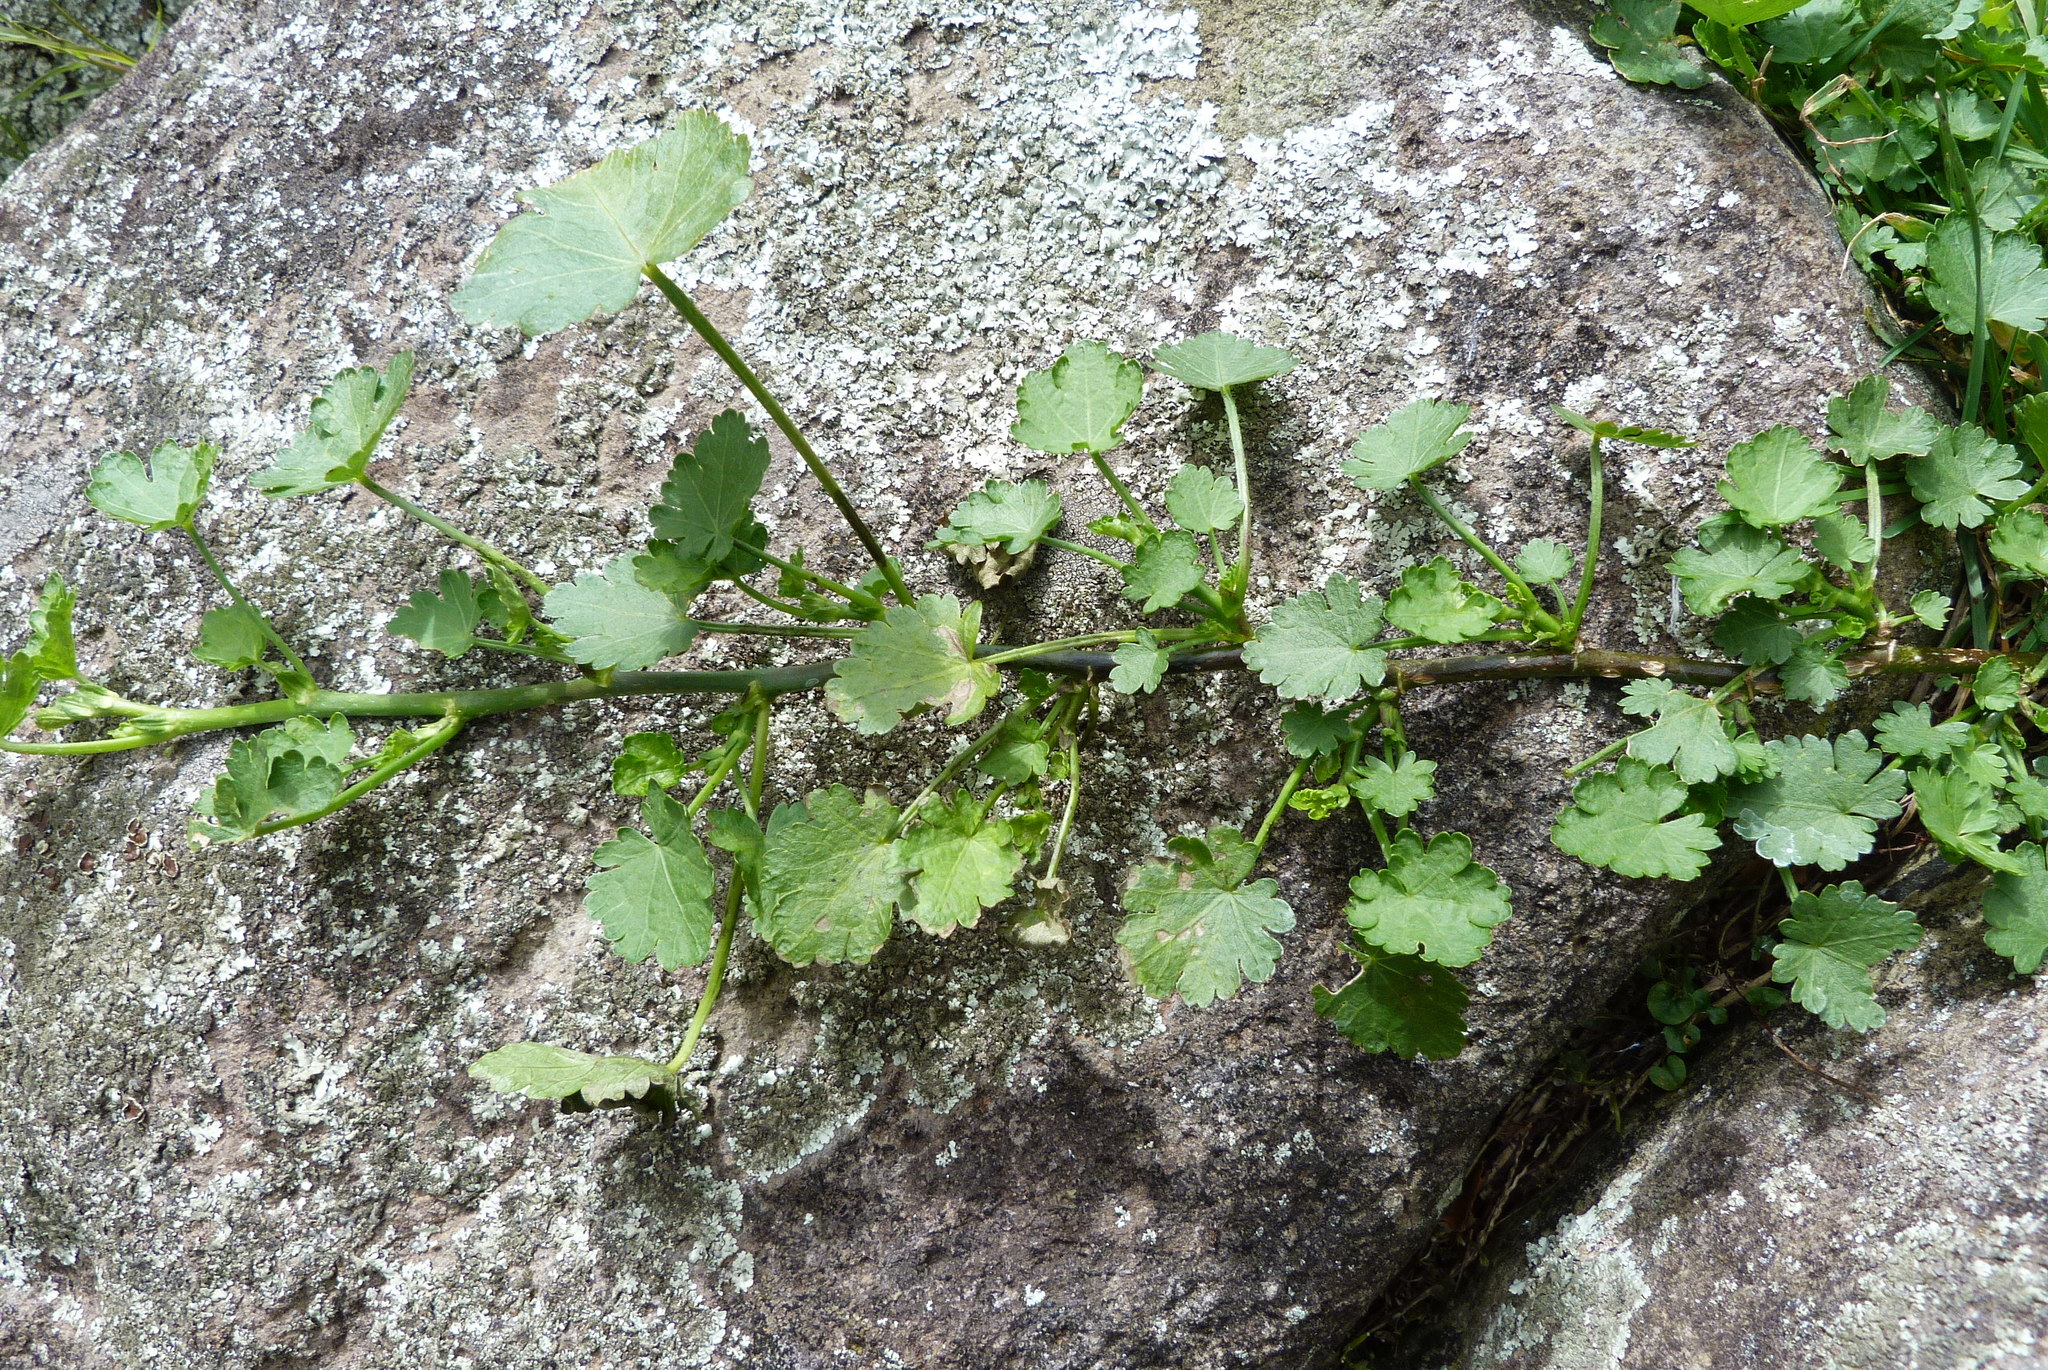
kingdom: Plantae
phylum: Tracheophyta
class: Magnoliopsida
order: Malvales
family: Malvaceae
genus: Modiola
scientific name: Modiola caroliniana
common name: Carolina bristlemallow
